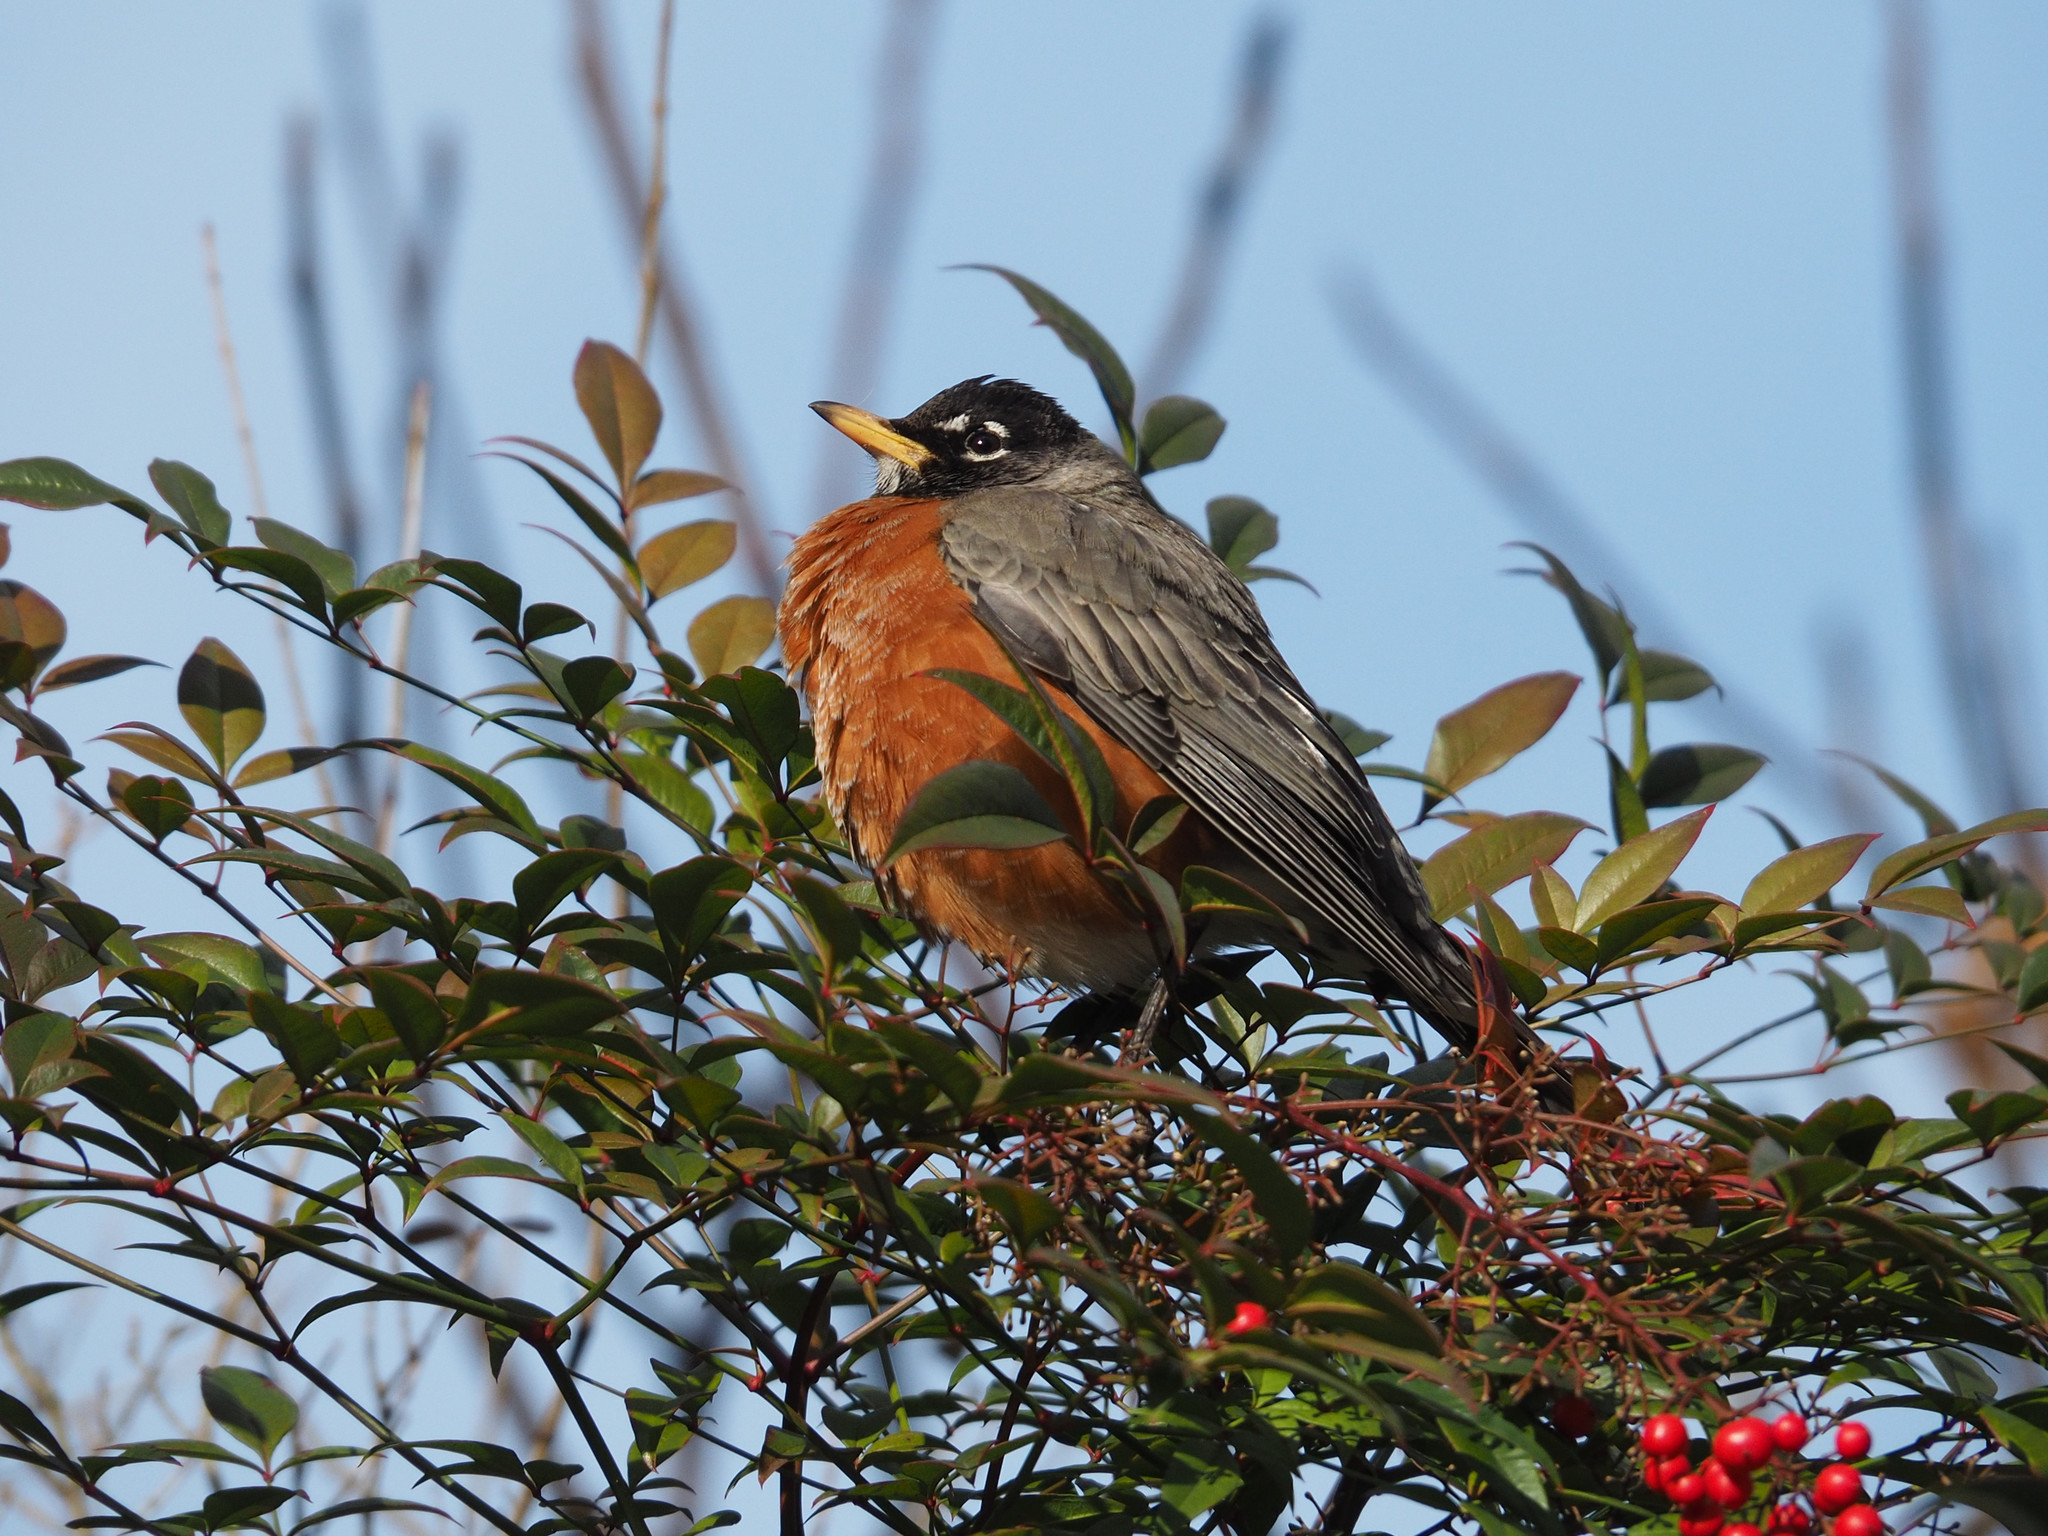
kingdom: Animalia
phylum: Chordata
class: Aves
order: Passeriformes
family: Turdidae
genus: Turdus
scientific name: Turdus migratorius
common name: American robin
